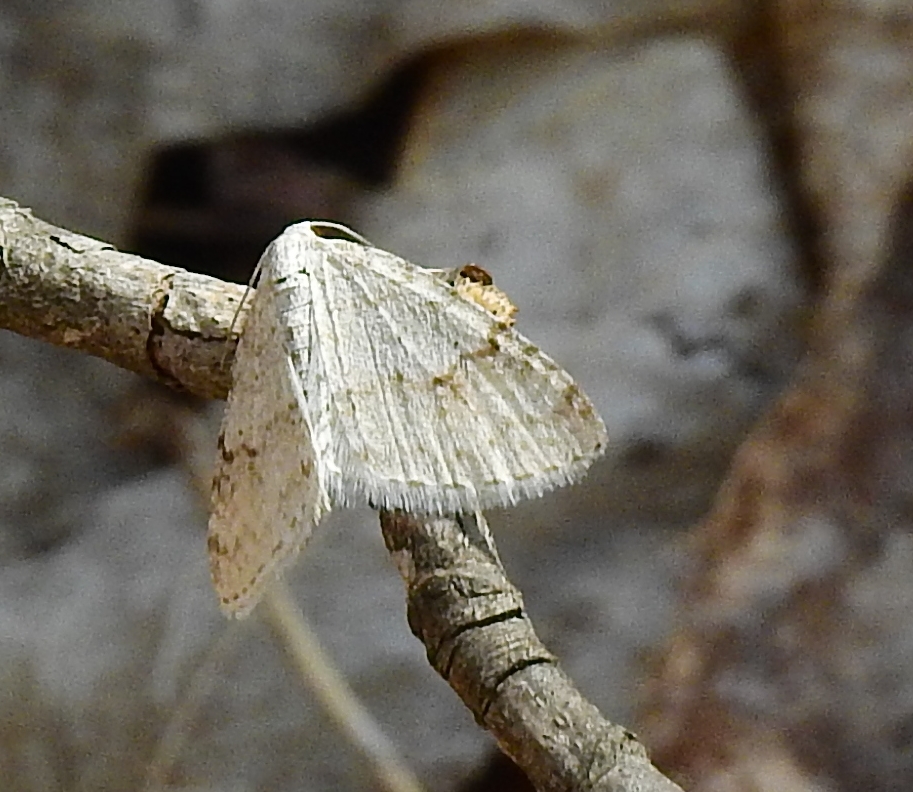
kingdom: Animalia
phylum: Arthropoda
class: Insecta
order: Lepidoptera
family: Geometridae
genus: Venusia
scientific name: Venusia comptaria
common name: Brown-shaded carpet
